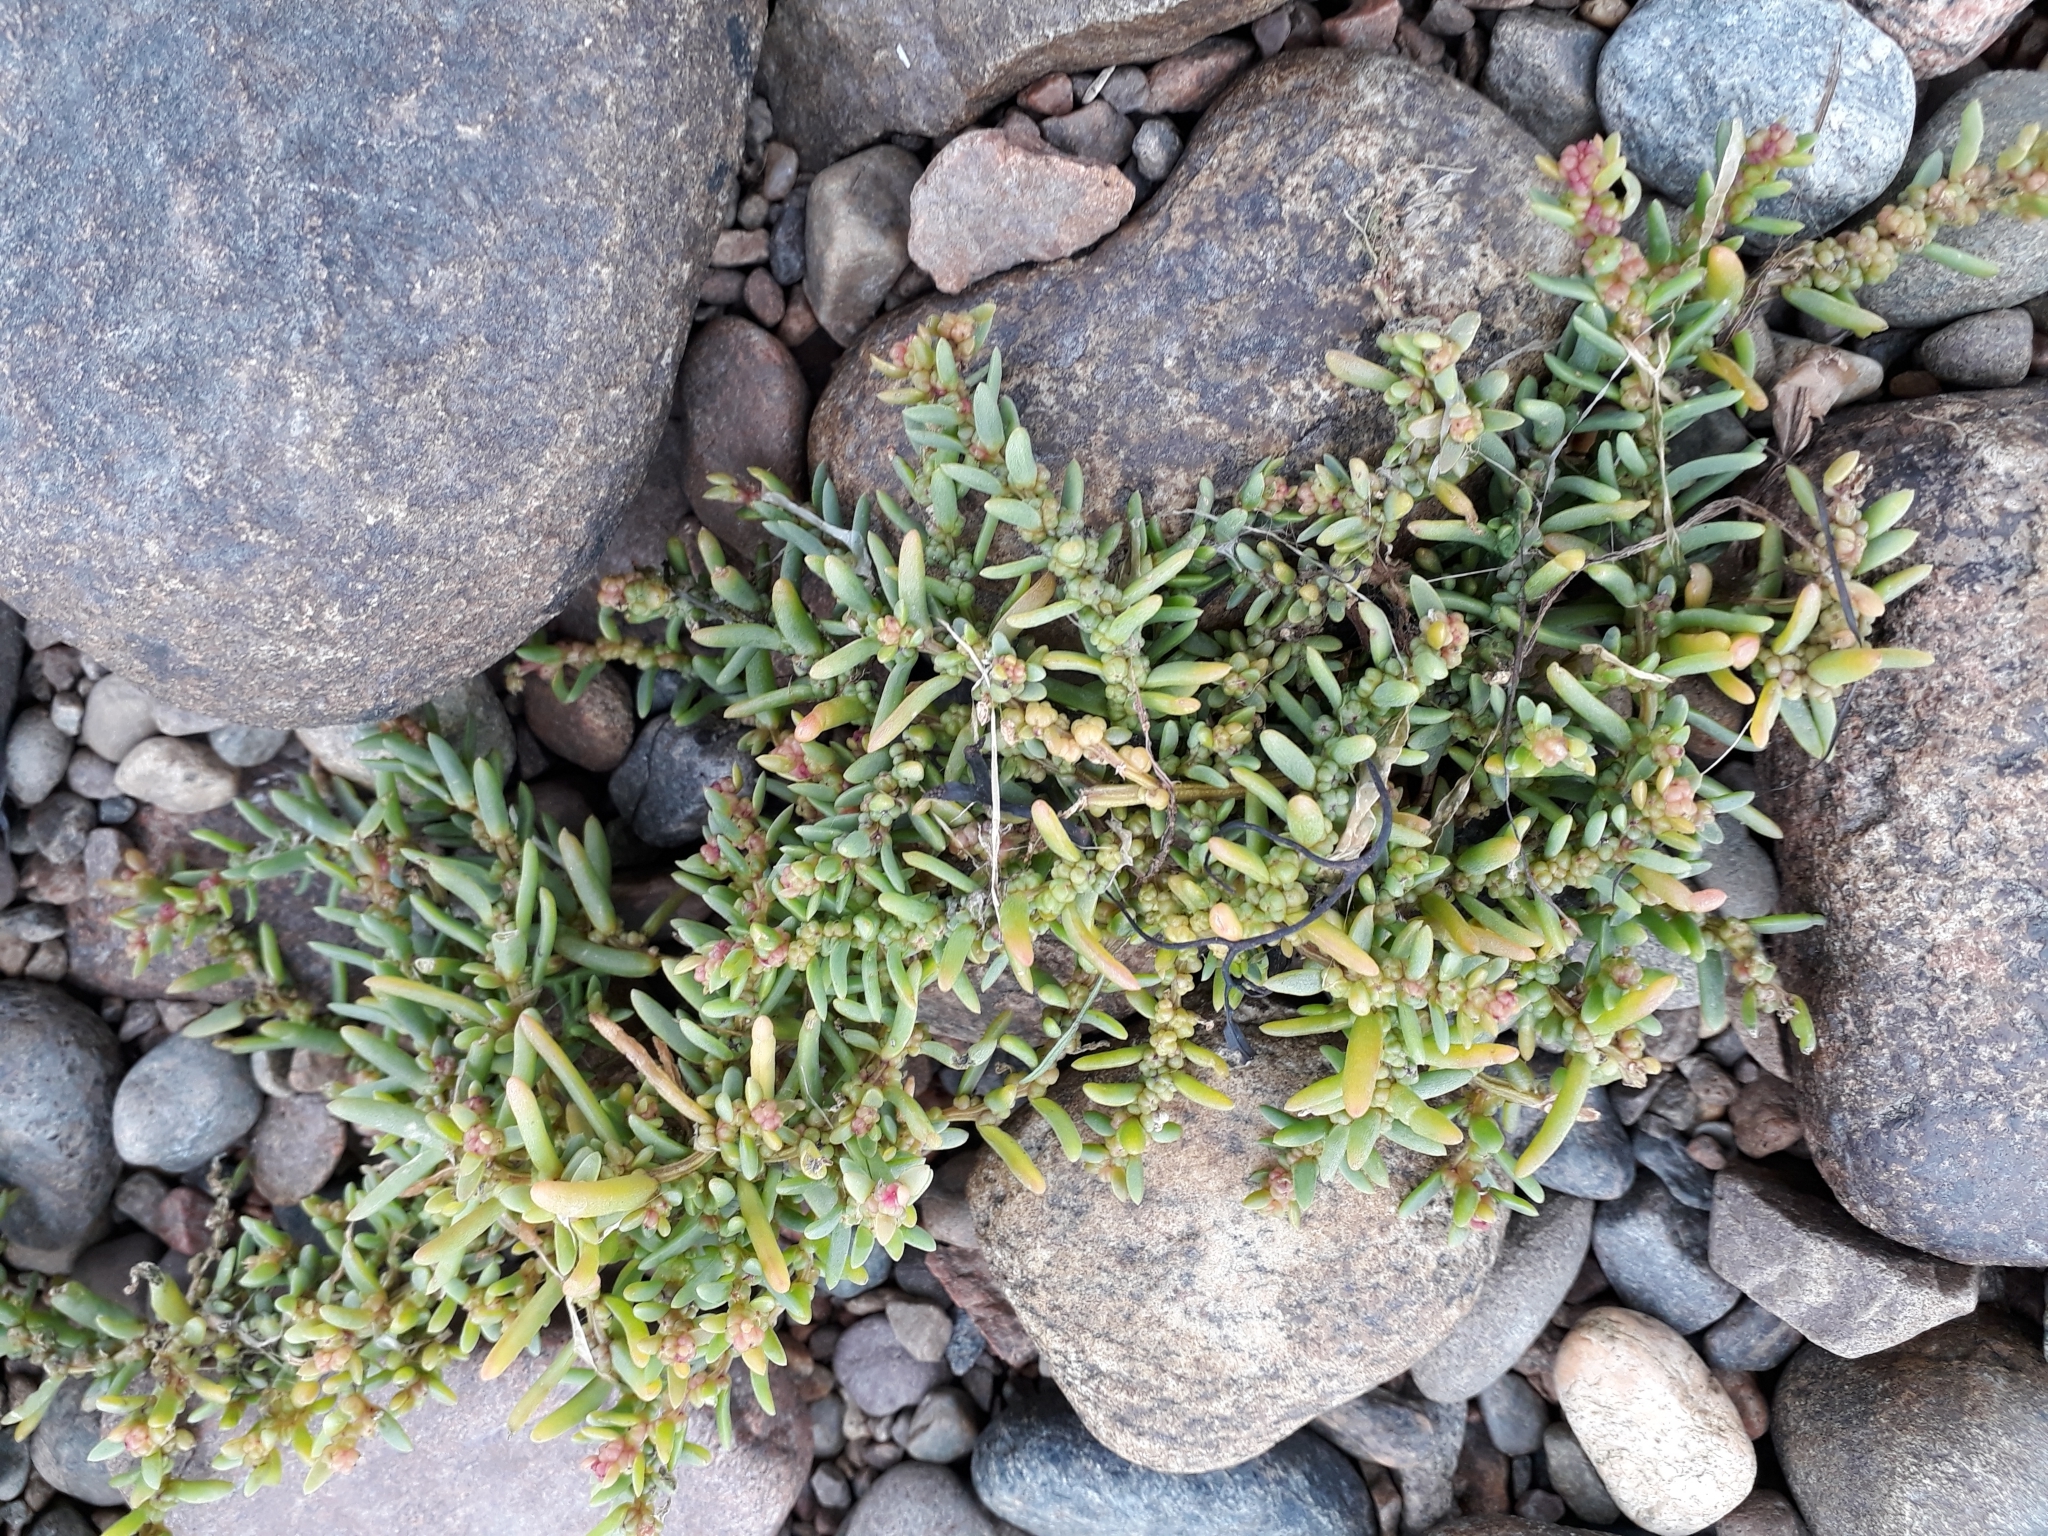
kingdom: Plantae
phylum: Tracheophyta
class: Magnoliopsida
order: Caryophyllales
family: Amaranthaceae
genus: Suaeda
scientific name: Suaeda maritima
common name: Annual sea-blite
